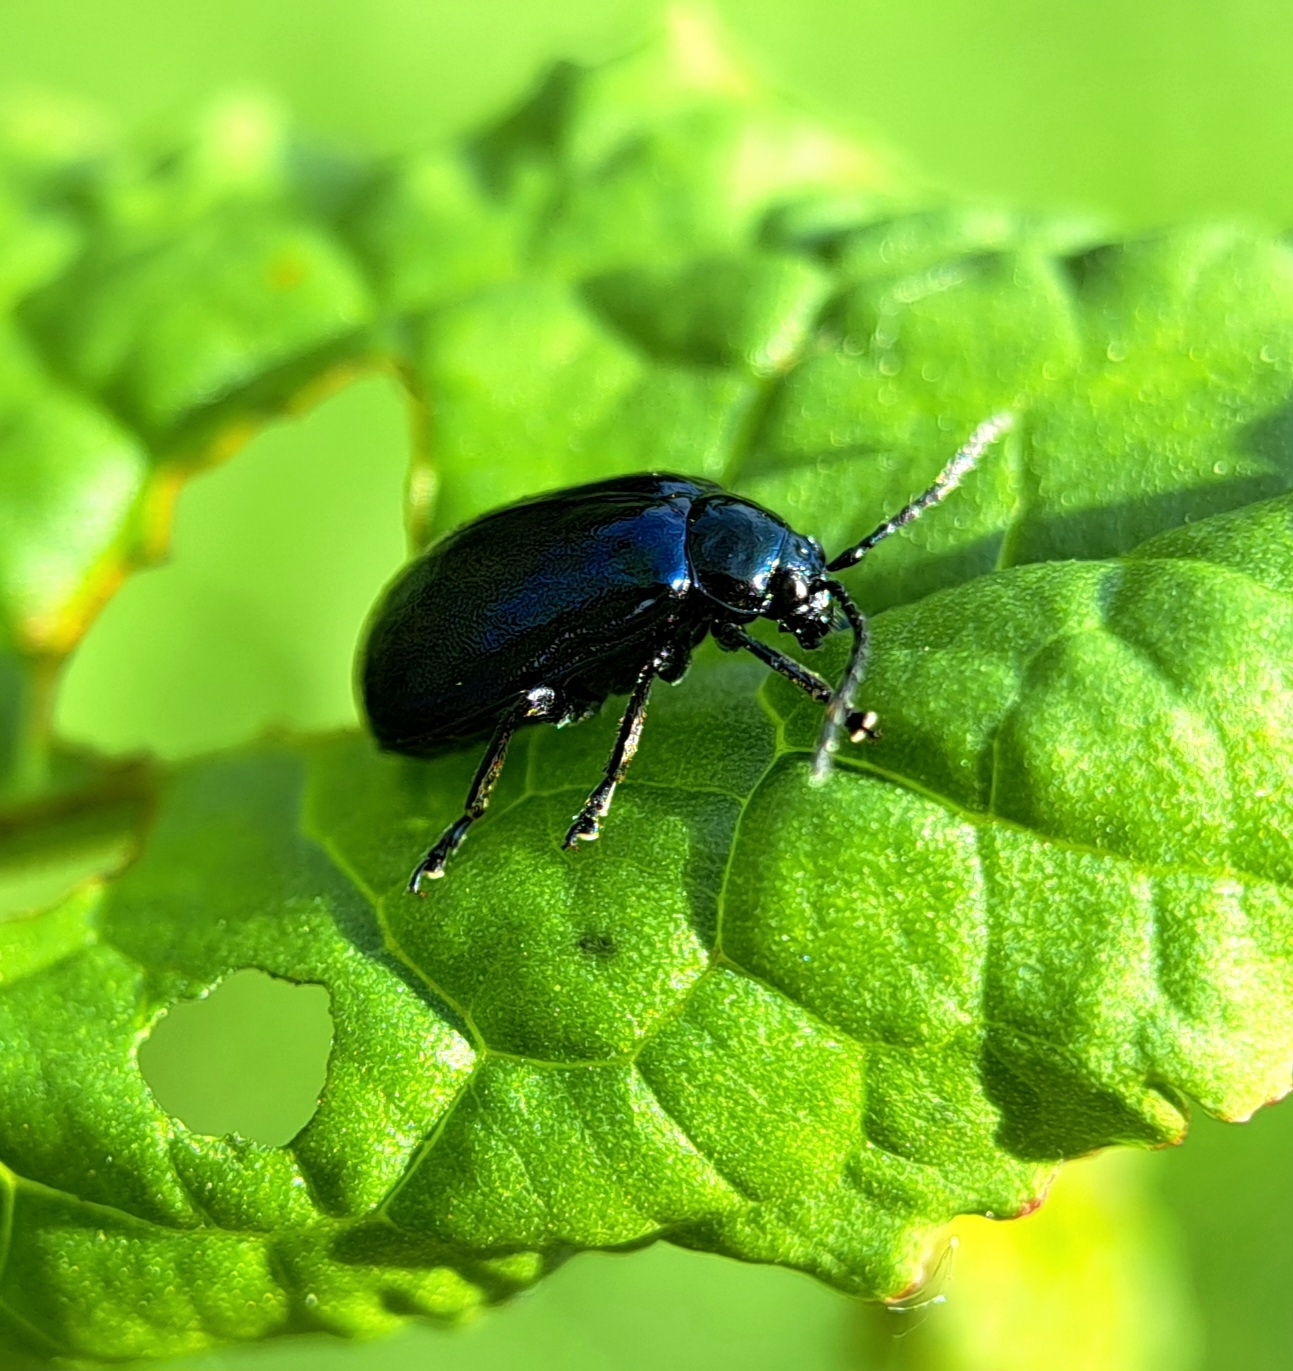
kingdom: Animalia
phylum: Arthropoda
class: Insecta
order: Coleoptera
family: Chrysomelidae
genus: Agelastica
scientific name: Agelastica alni
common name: Alder leaf beetle
